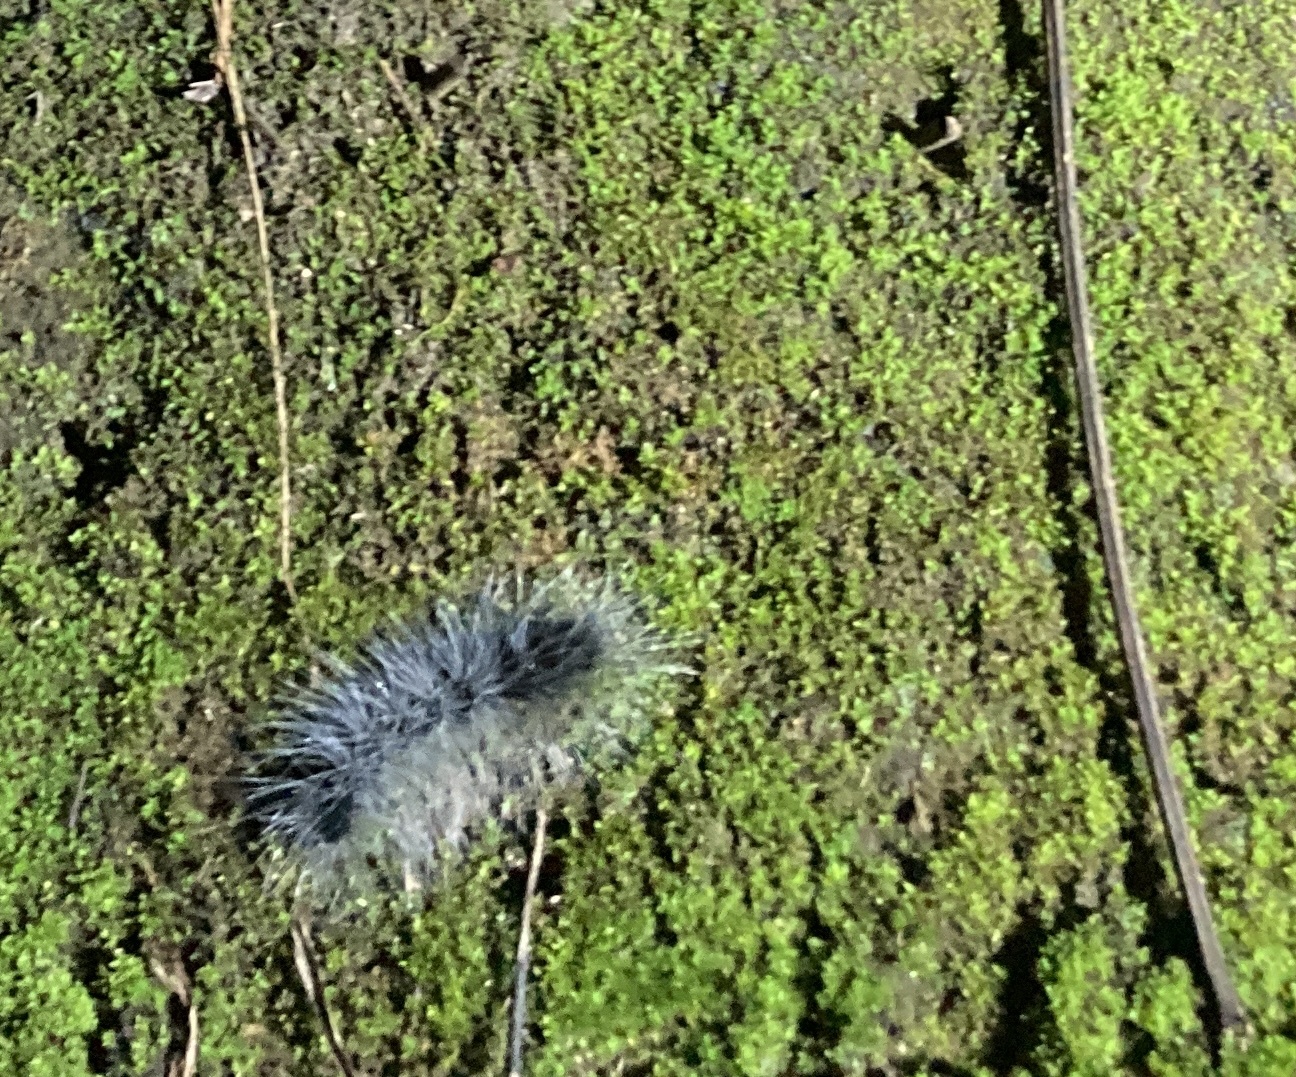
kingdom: Animalia
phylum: Arthropoda
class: Insecta
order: Lepidoptera
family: Erebidae
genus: Macrobrochis
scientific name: Macrobrochis gigas
